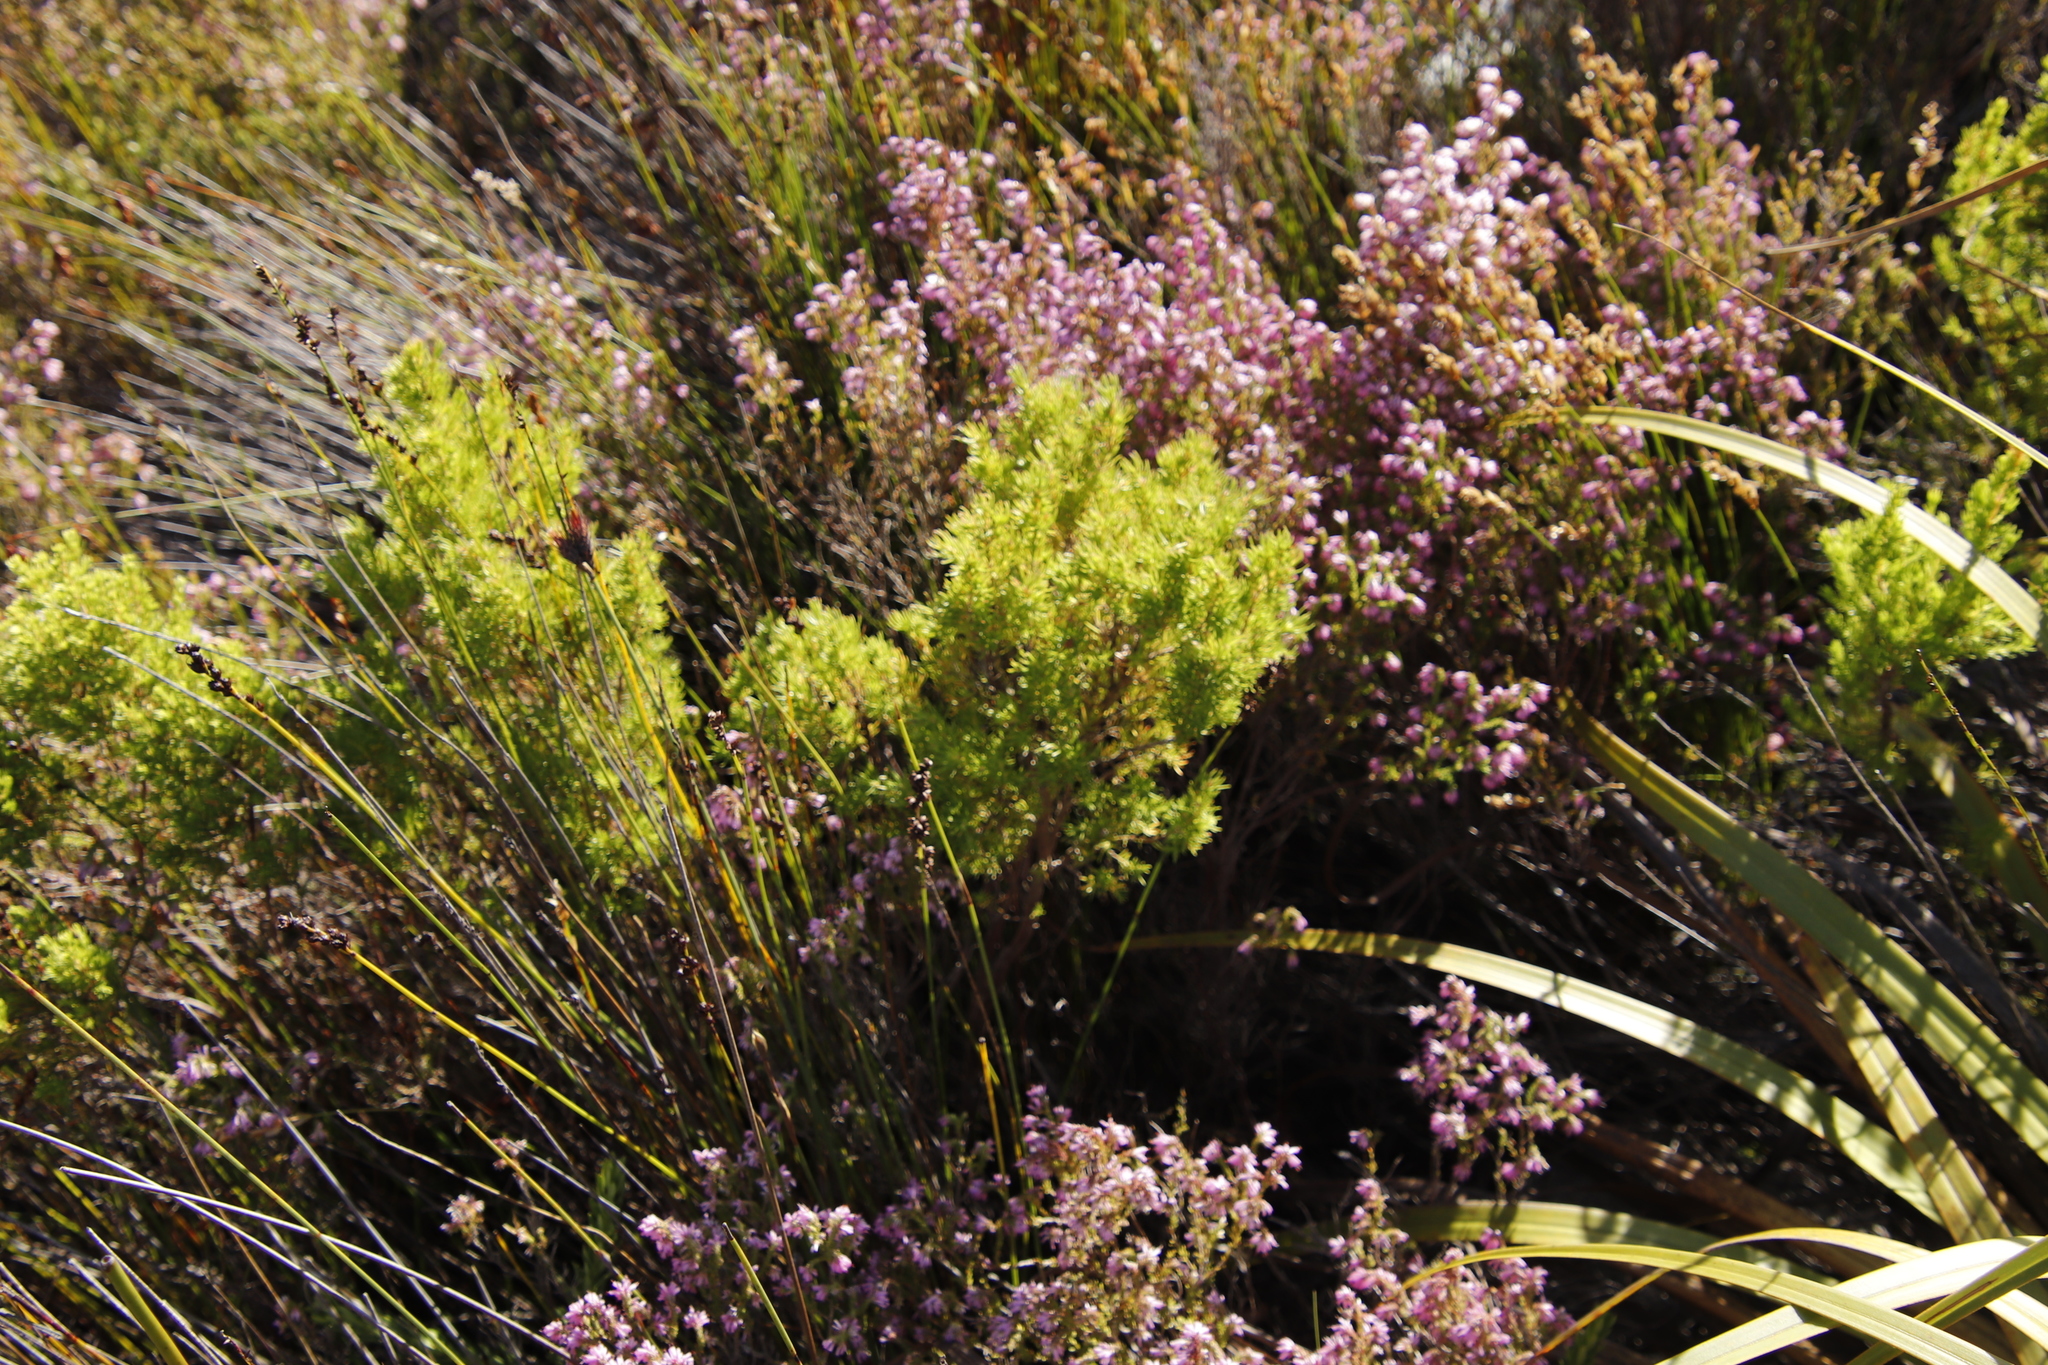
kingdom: Plantae
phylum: Tracheophyta
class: Magnoliopsida
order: Ericales
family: Ericaceae
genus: Erica
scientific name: Erica sitiens
